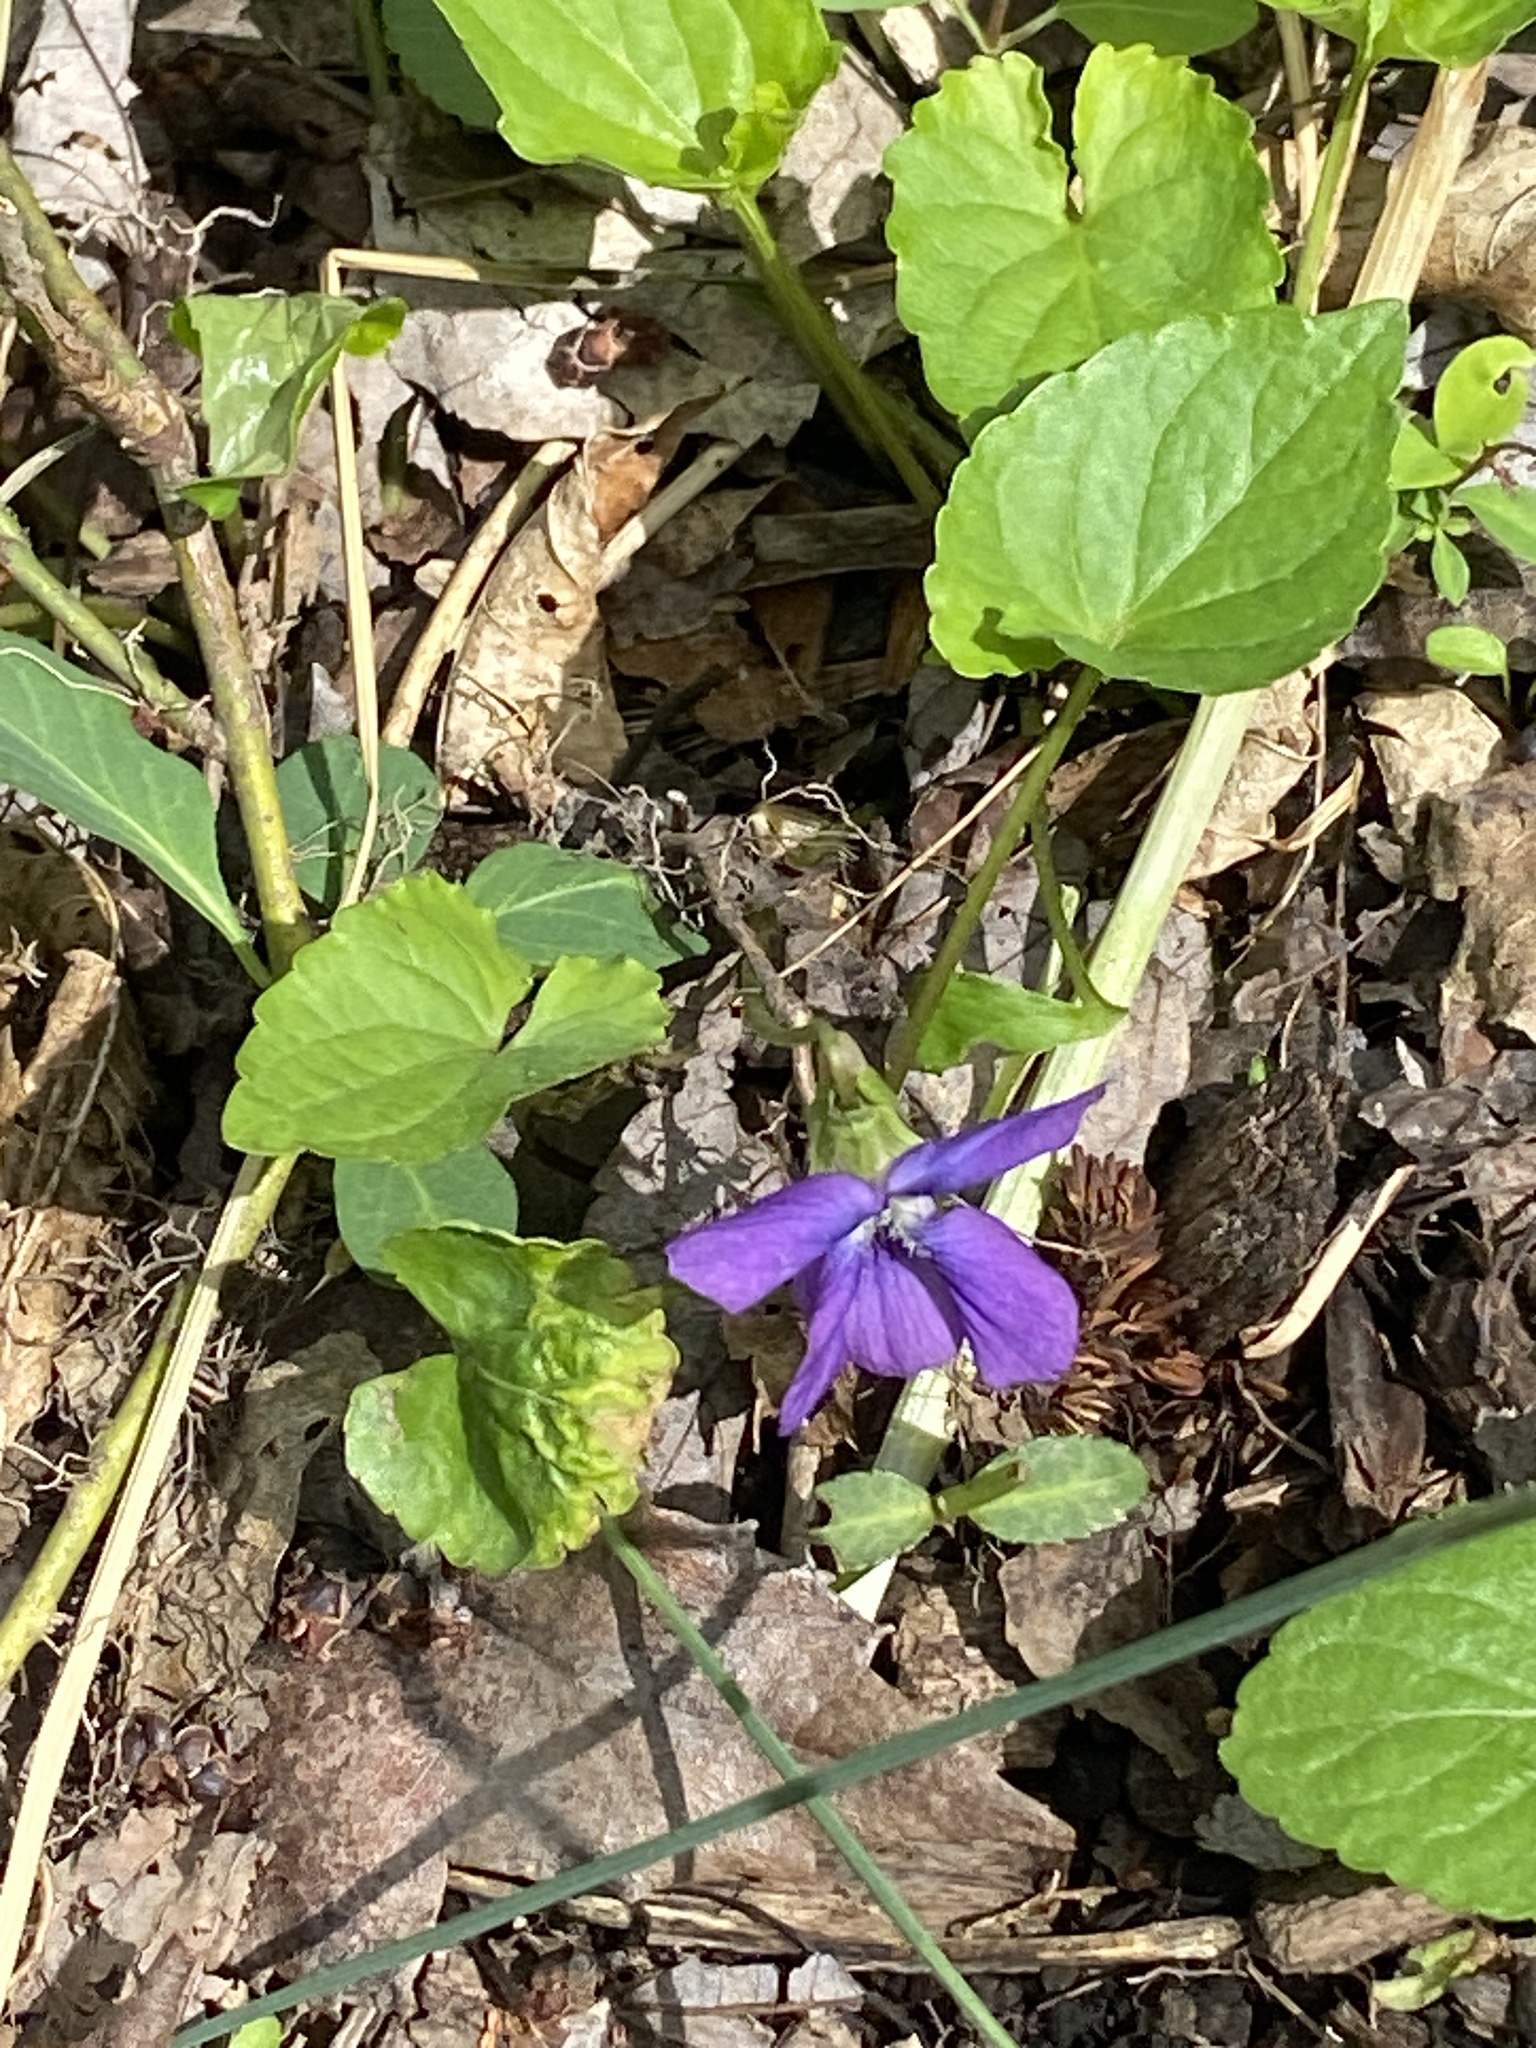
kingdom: Plantae
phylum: Tracheophyta
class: Magnoliopsida
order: Malpighiales
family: Violaceae
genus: Viola
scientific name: Viola sororia
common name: Dooryard violet
